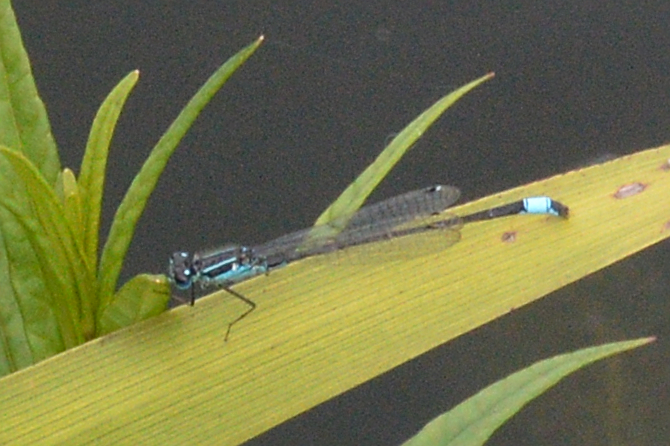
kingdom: Animalia
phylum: Arthropoda
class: Insecta
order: Odonata
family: Coenagrionidae
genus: Ischnura
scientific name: Ischnura elegans
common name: Blue-tailed damselfly
